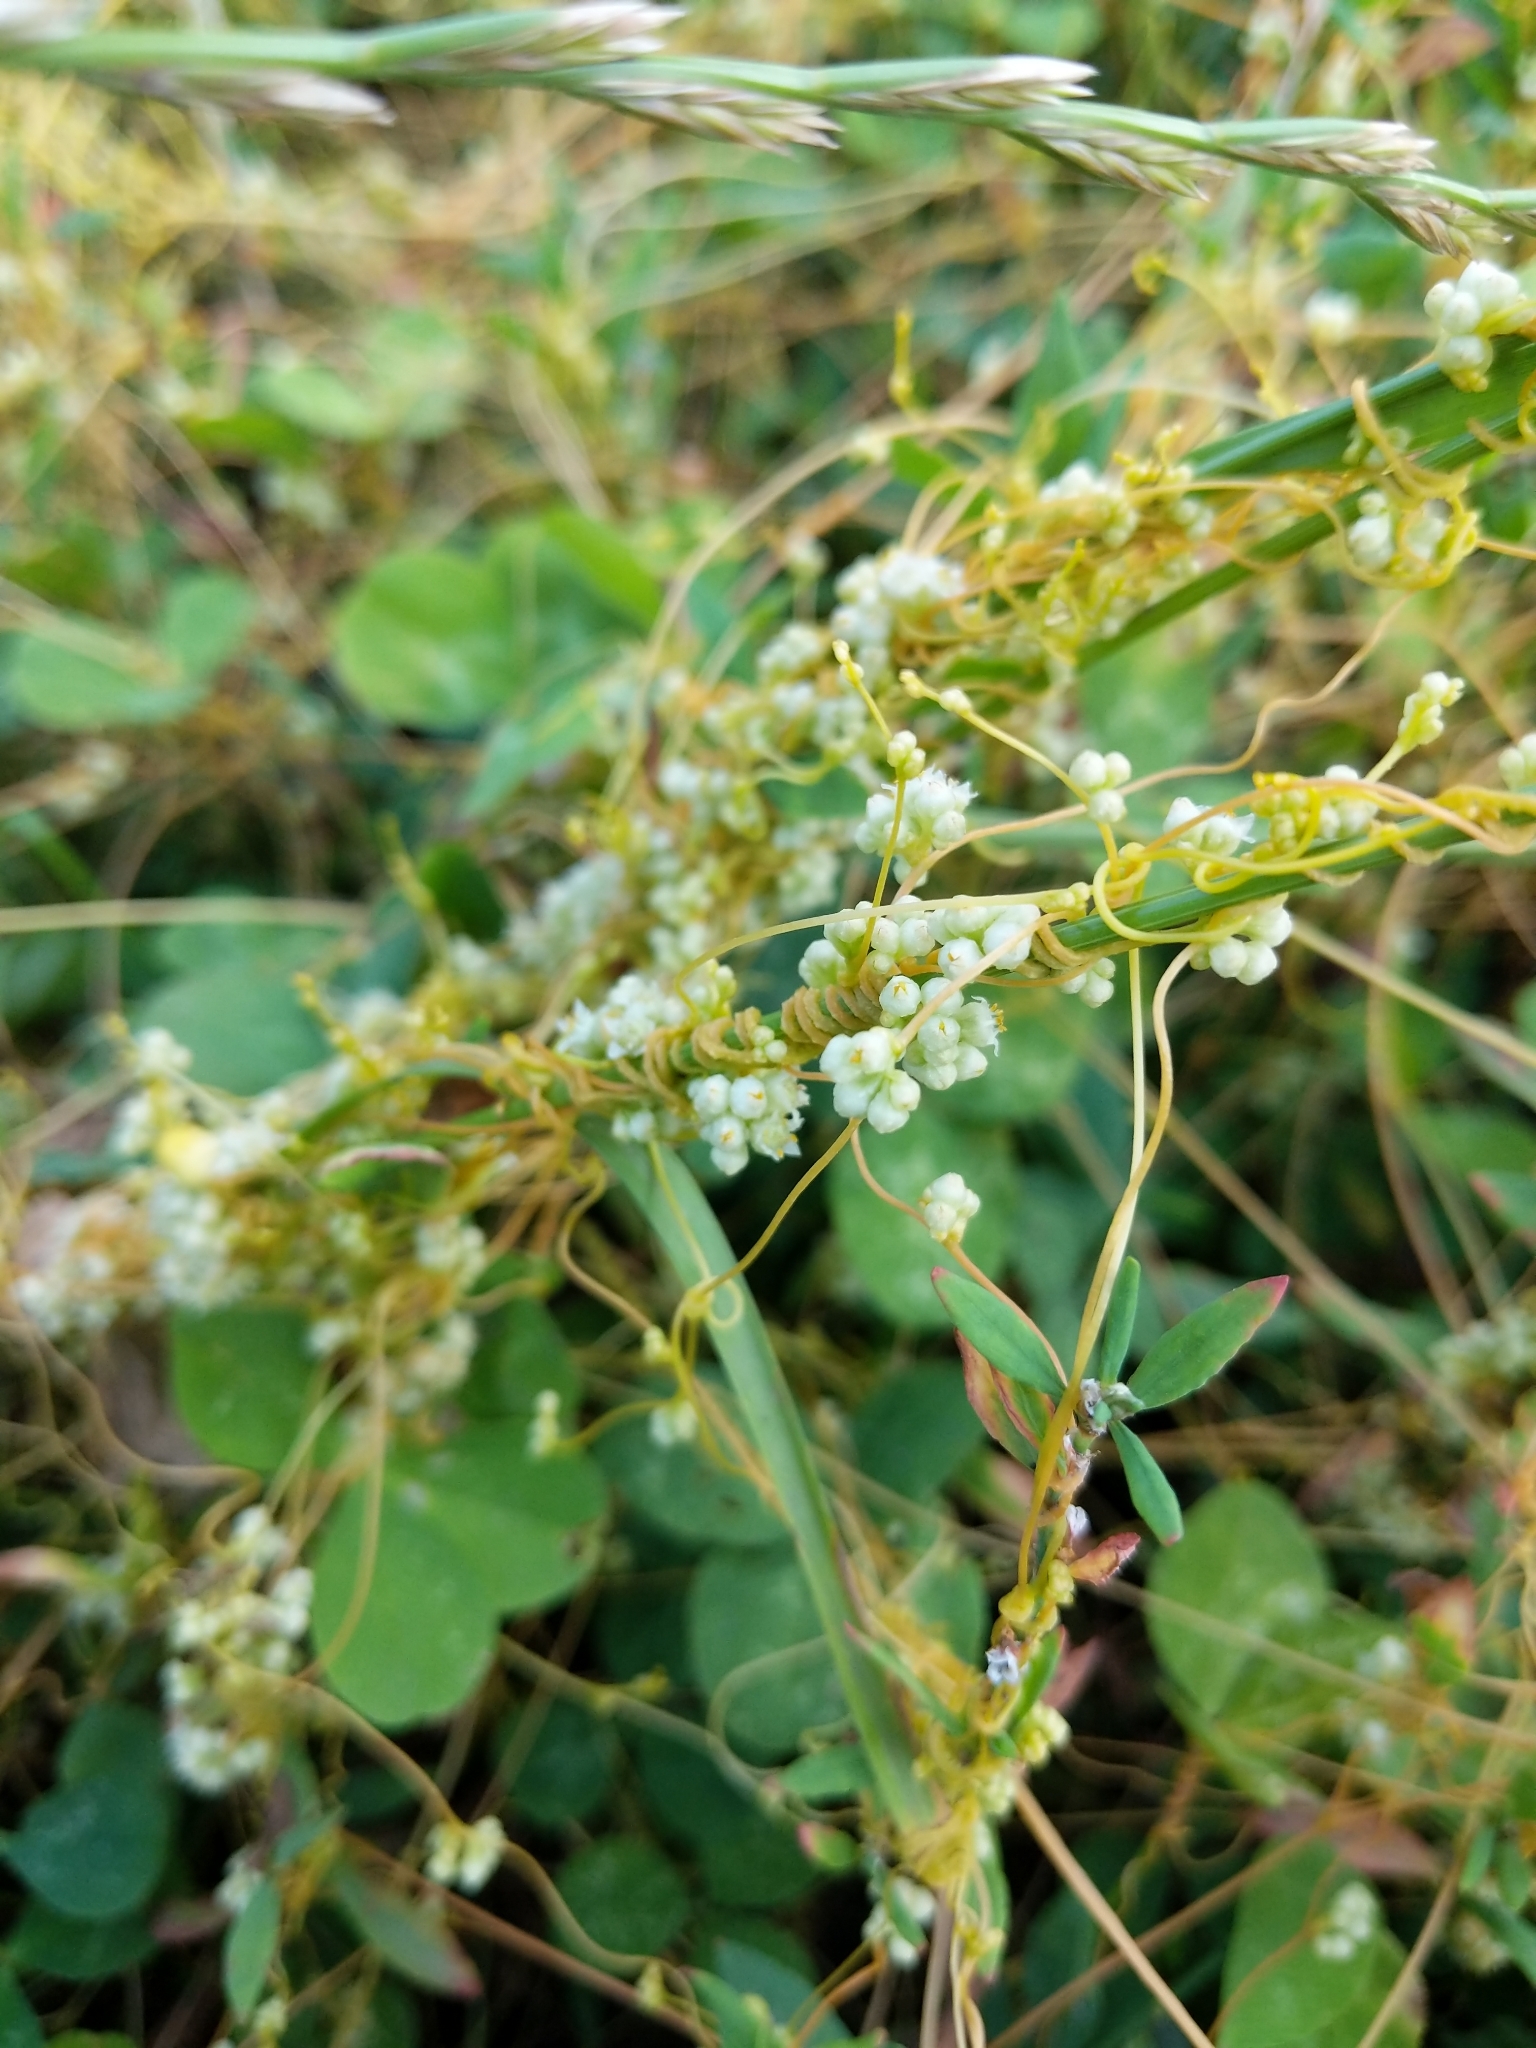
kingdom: Plantae
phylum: Tracheophyta
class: Magnoliopsida
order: Solanales
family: Convolvulaceae
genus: Cuscuta
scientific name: Cuscuta campestris
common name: Yellow dodder
